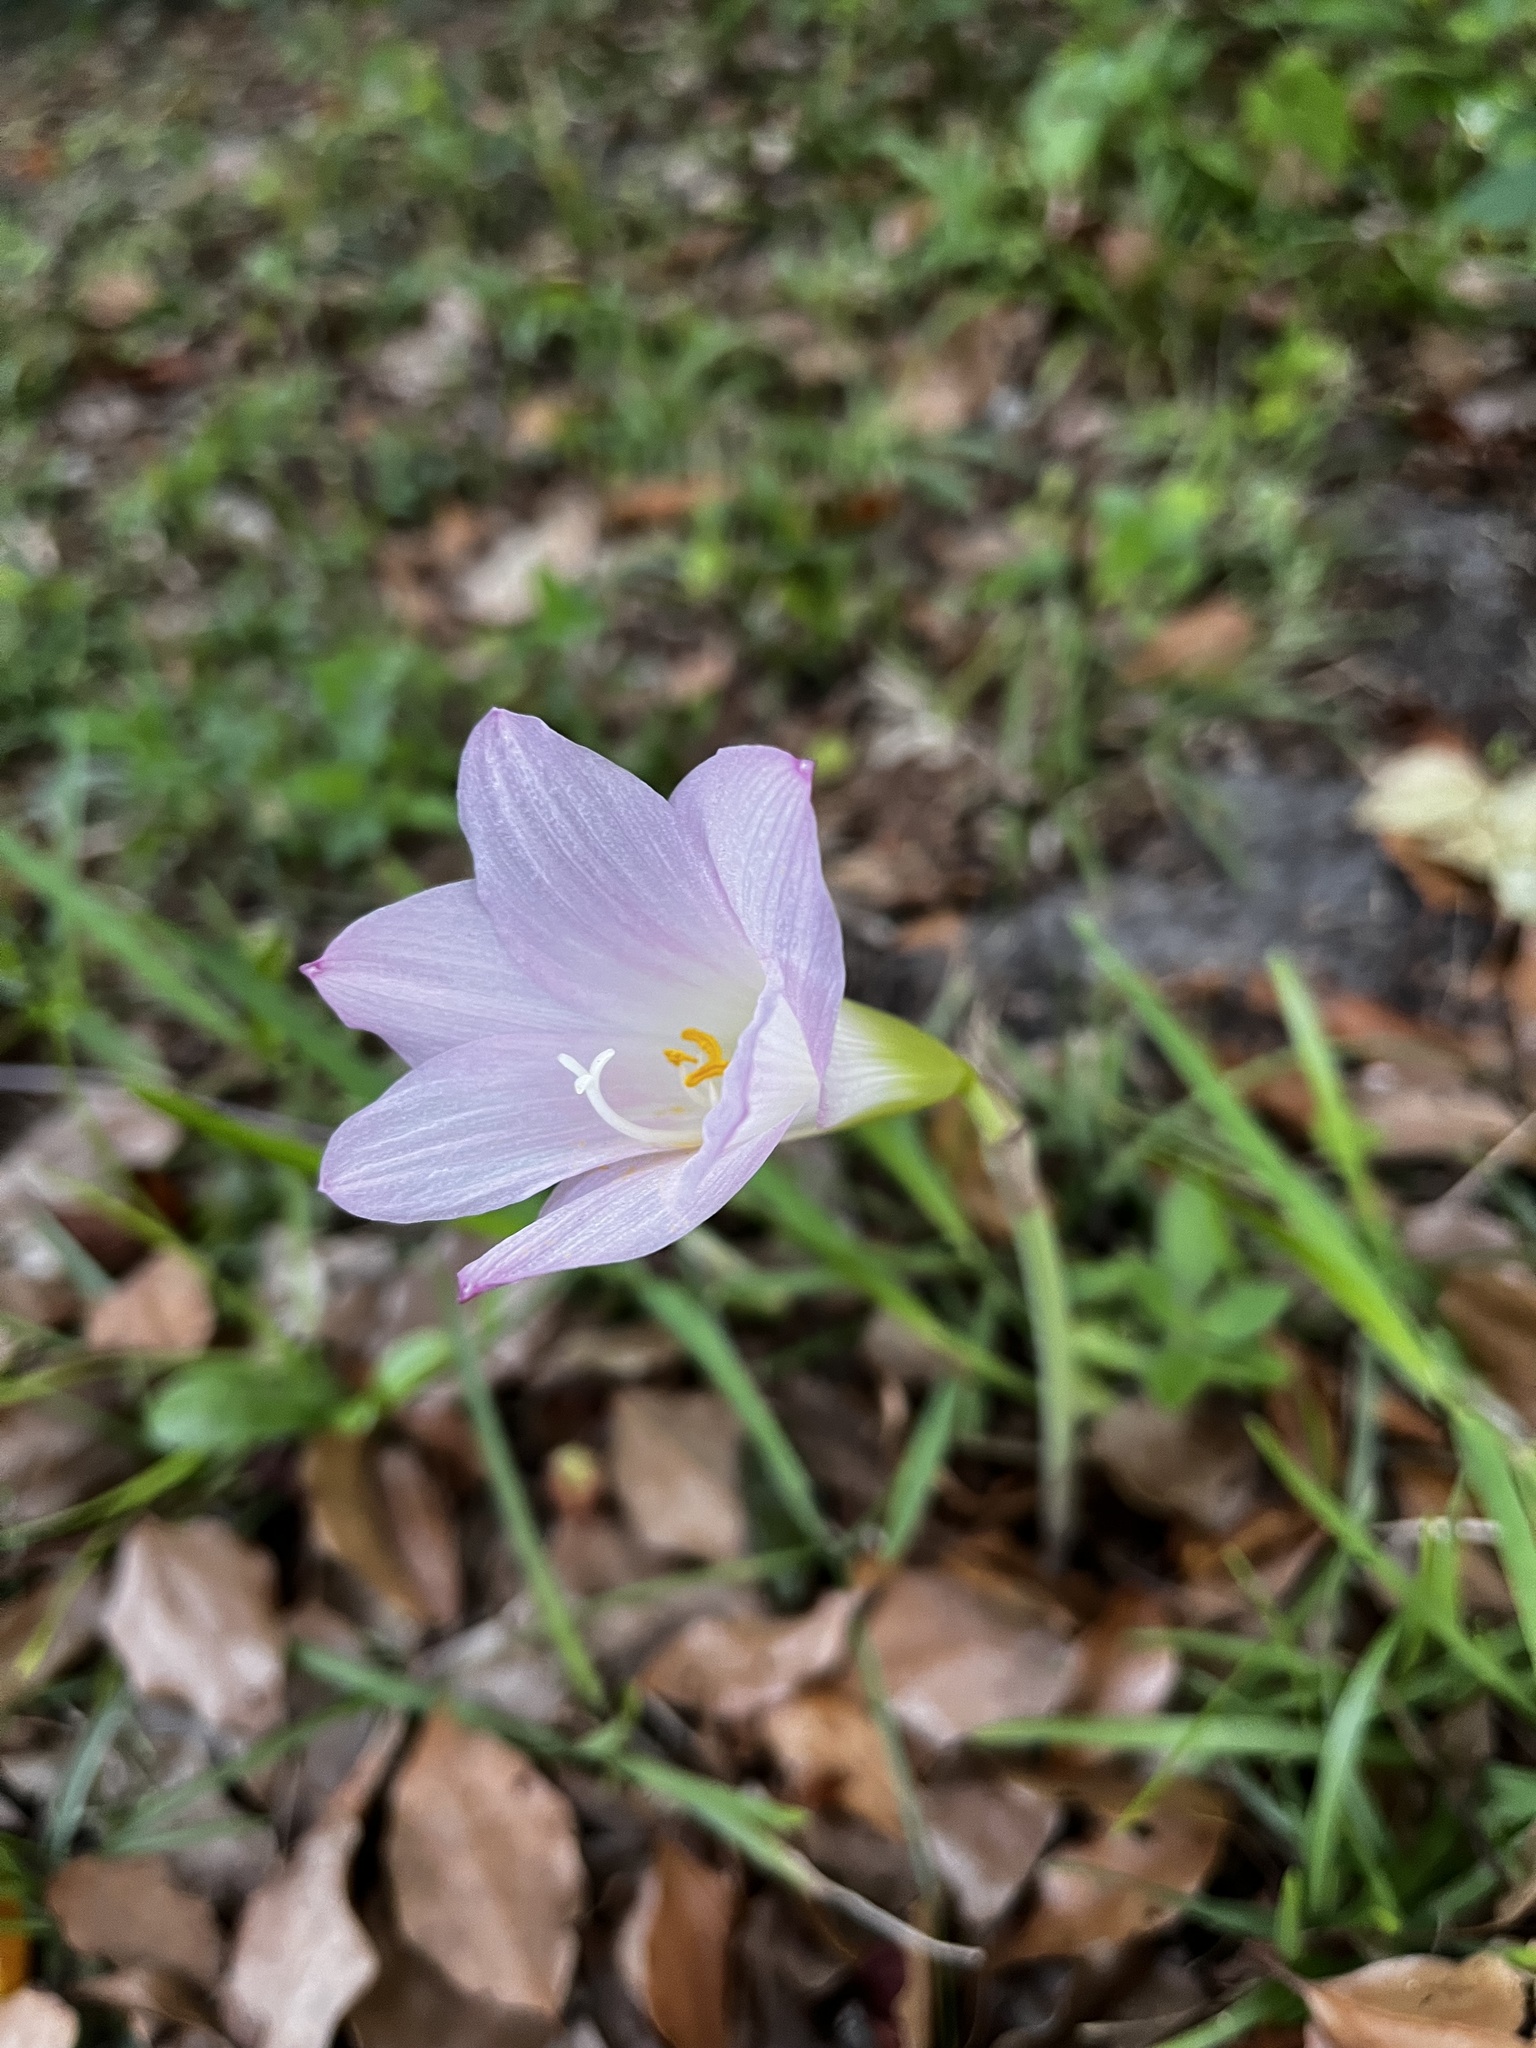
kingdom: Plantae
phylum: Tracheophyta
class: Liliopsida
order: Asparagales
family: Amaryllidaceae
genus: Zephyranthes
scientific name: Zephyranthes robusta
